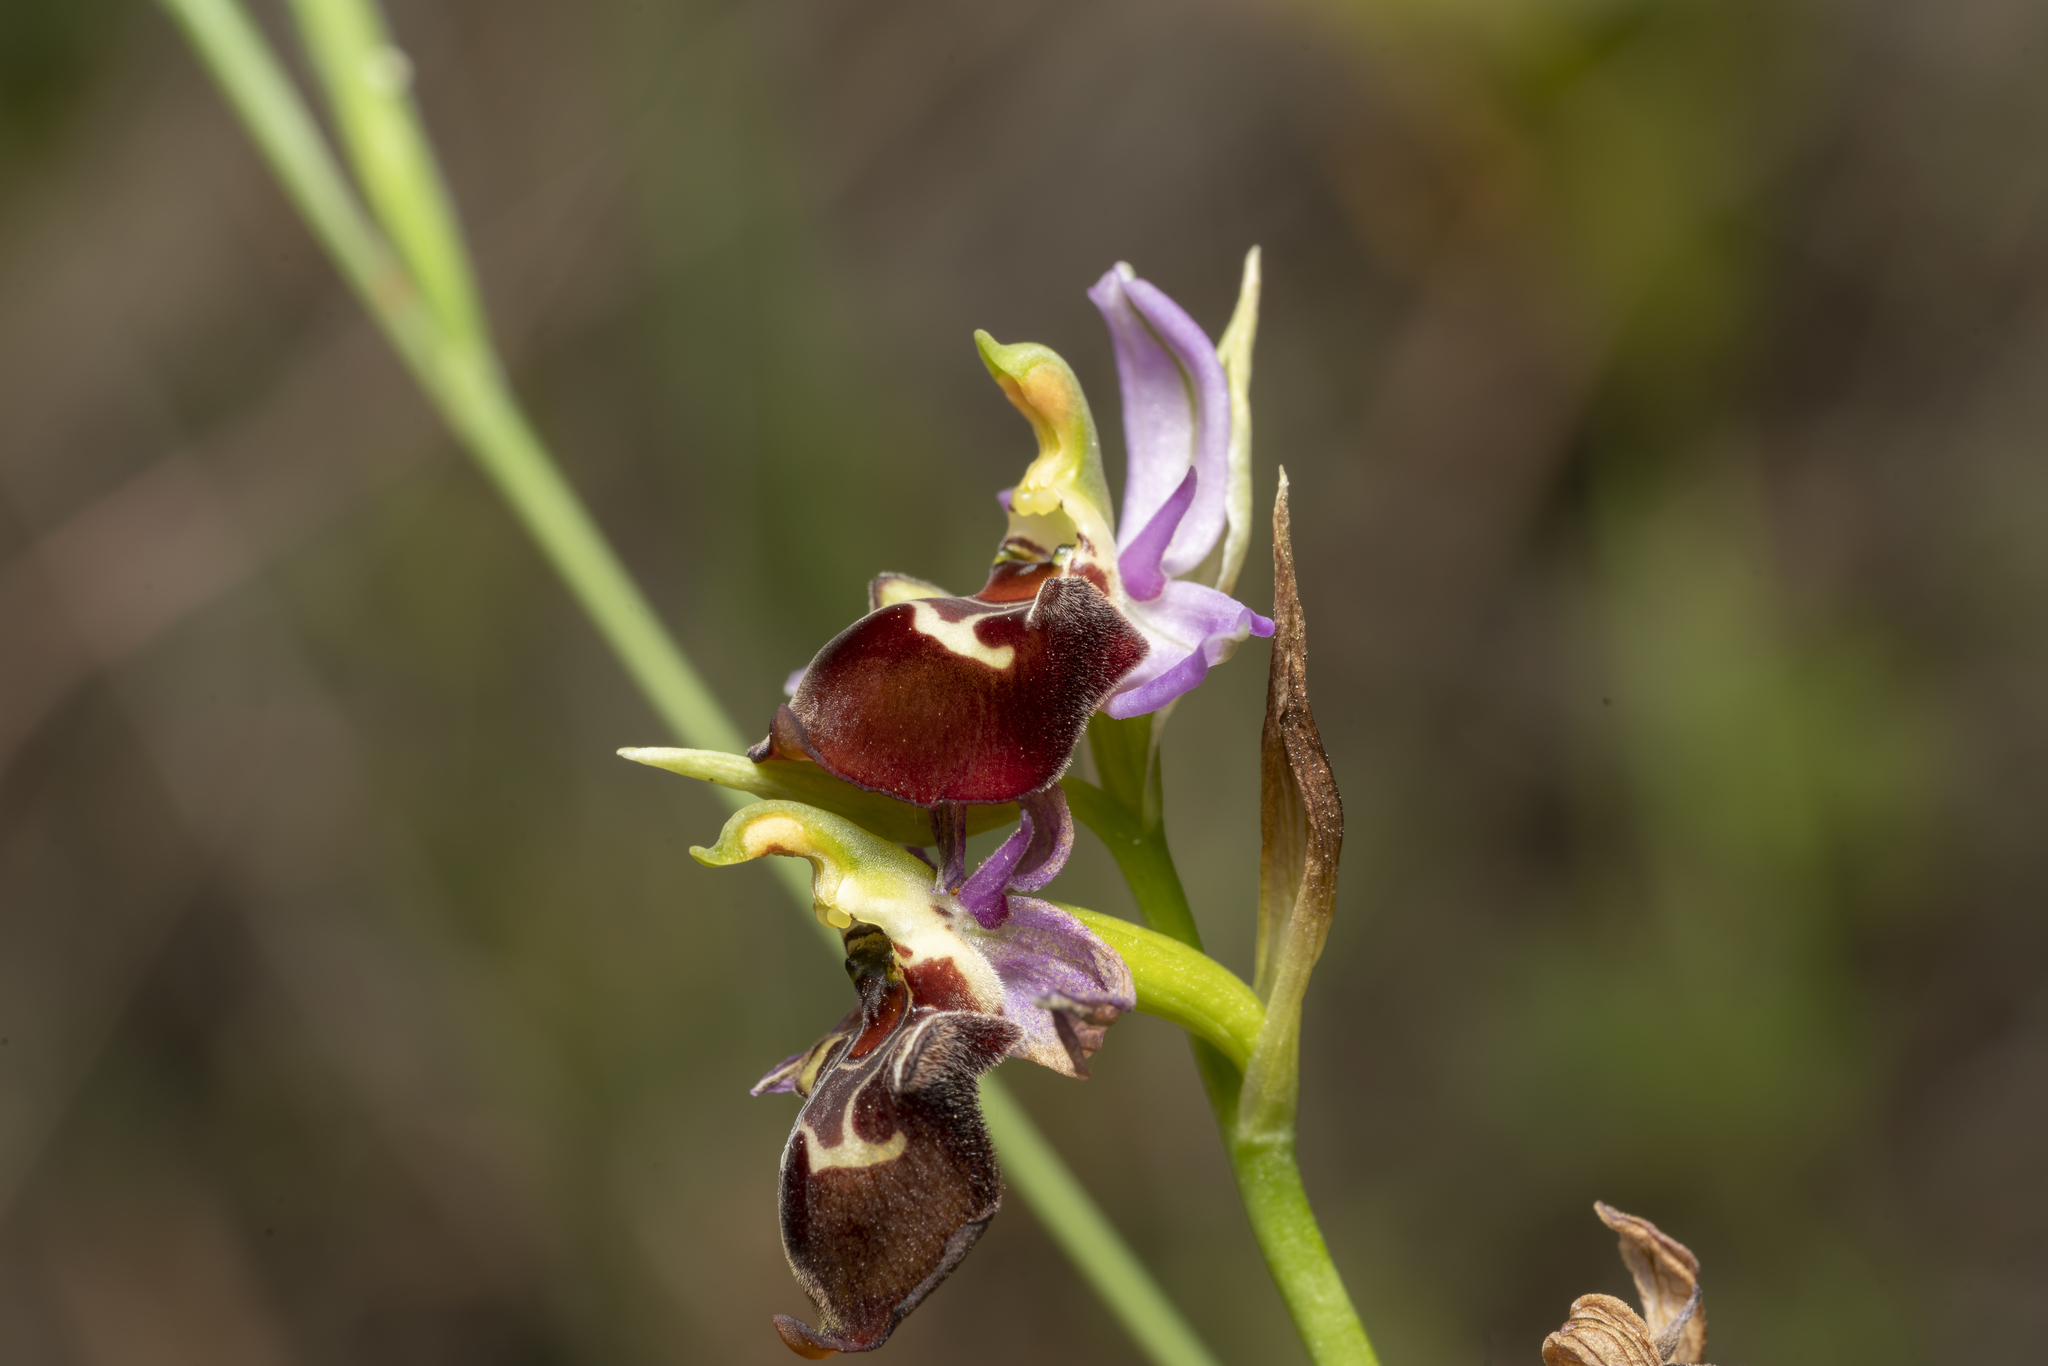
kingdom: Plantae
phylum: Tracheophyta
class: Liliopsida
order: Asparagales
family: Orchidaceae
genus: Ophrys
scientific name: Ophrys holosericea
